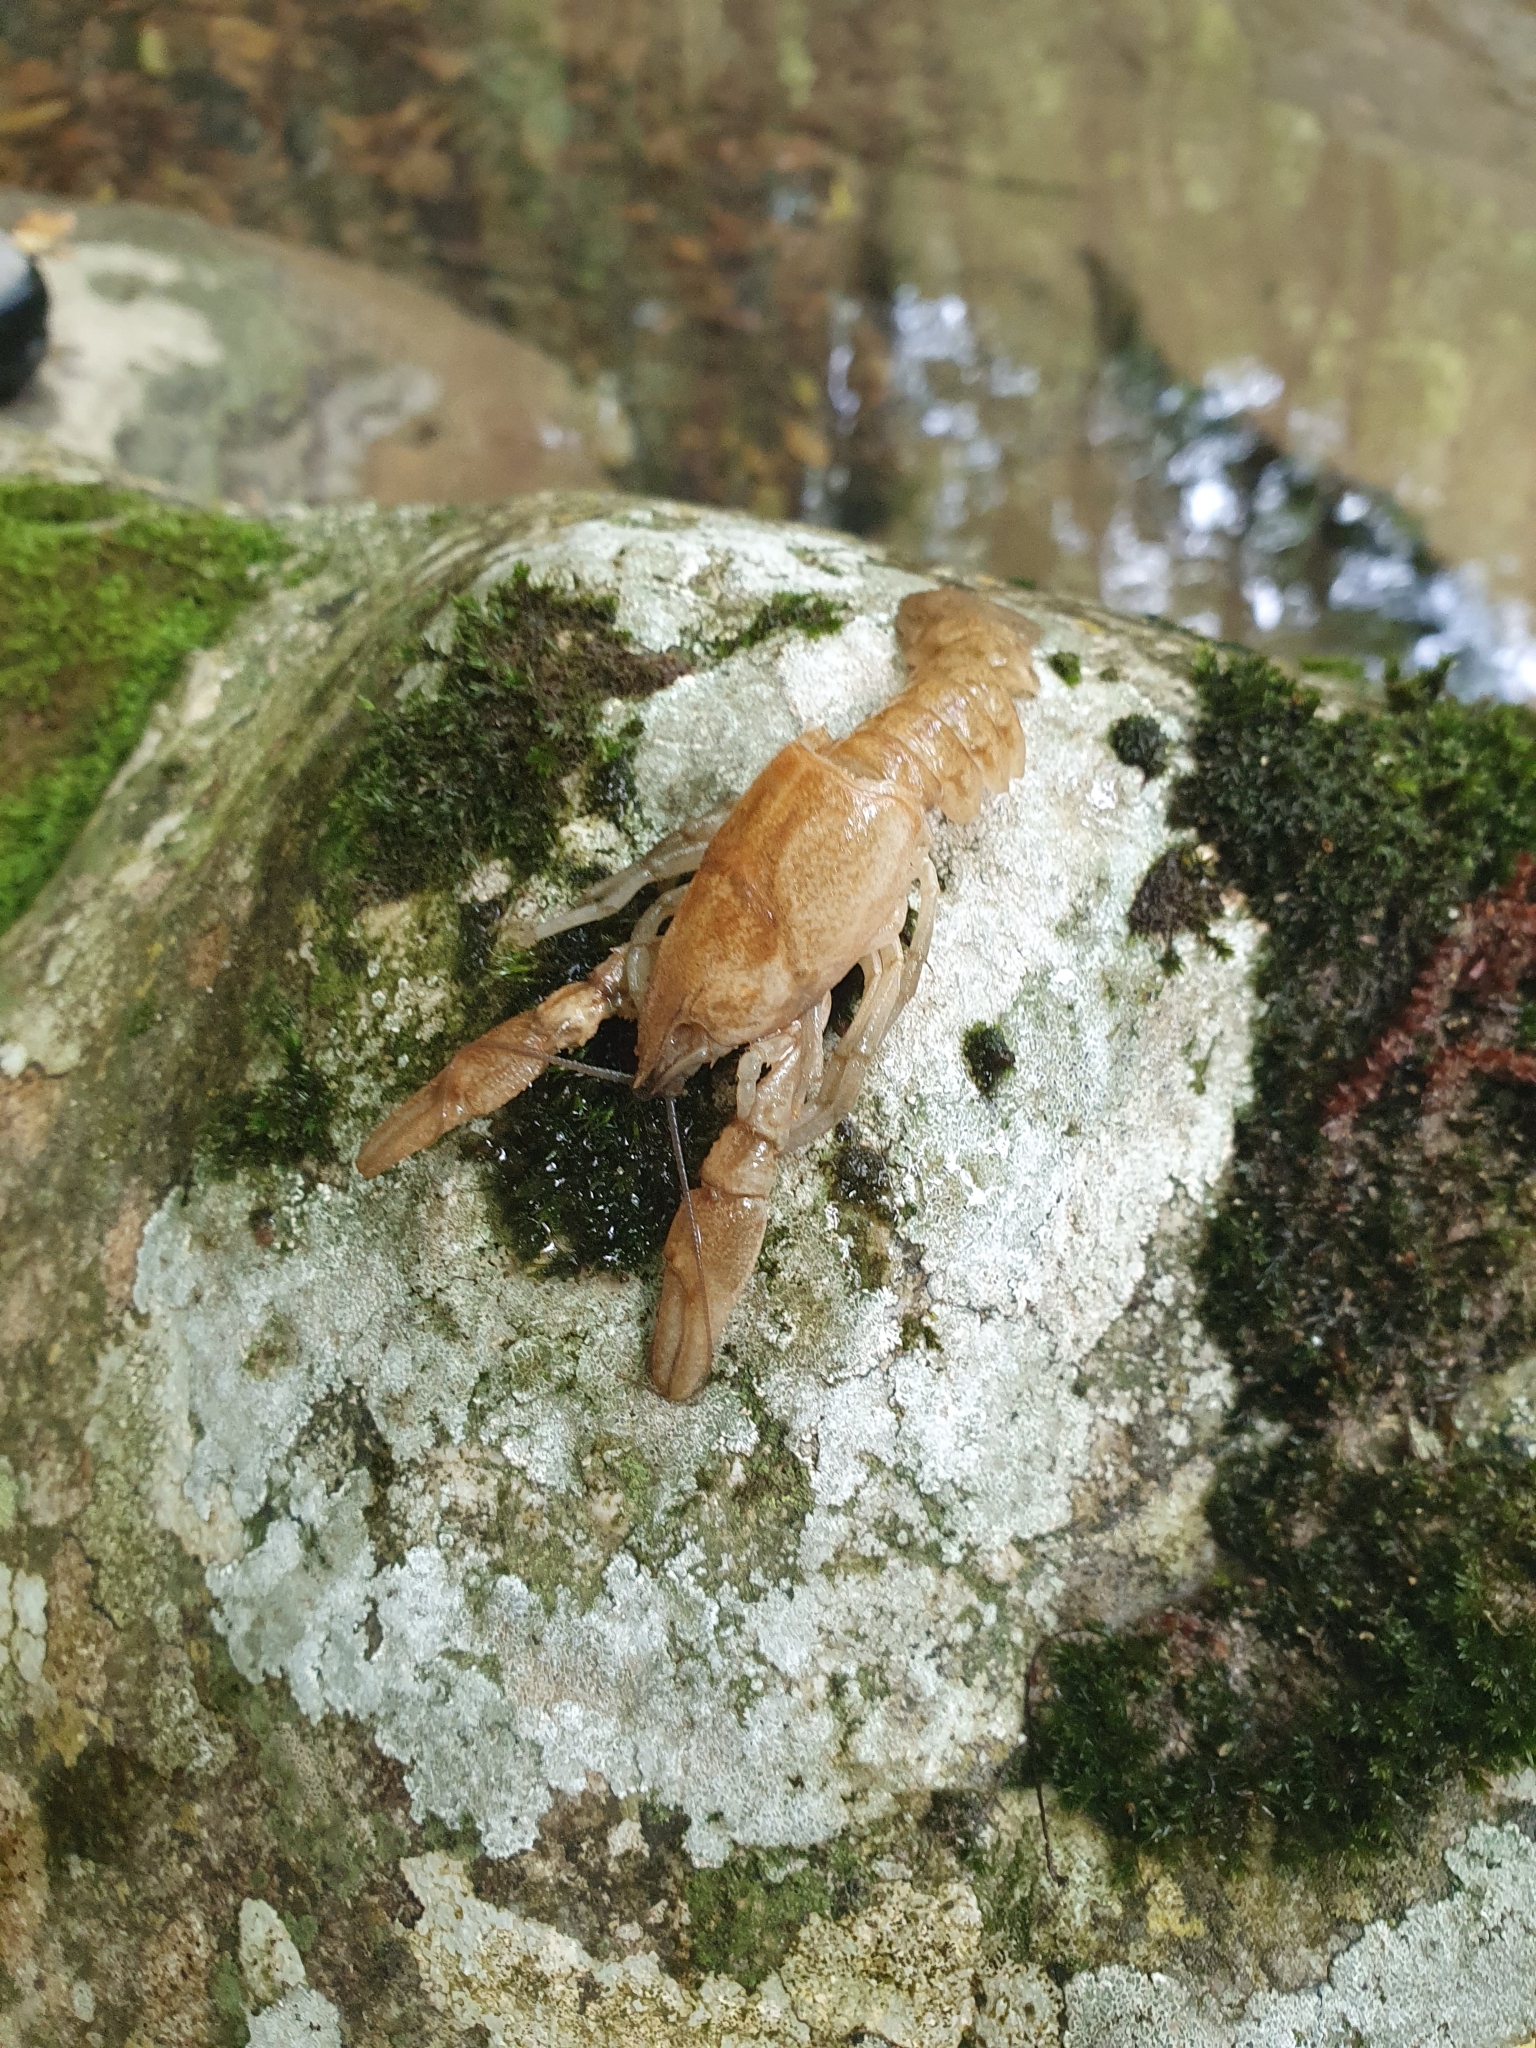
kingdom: Animalia
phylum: Arthropoda
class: Malacostraca
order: Decapoda
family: Astacidae
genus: Austropotamobius
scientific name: Austropotamobius pallipes
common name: White-clawed crayfish
